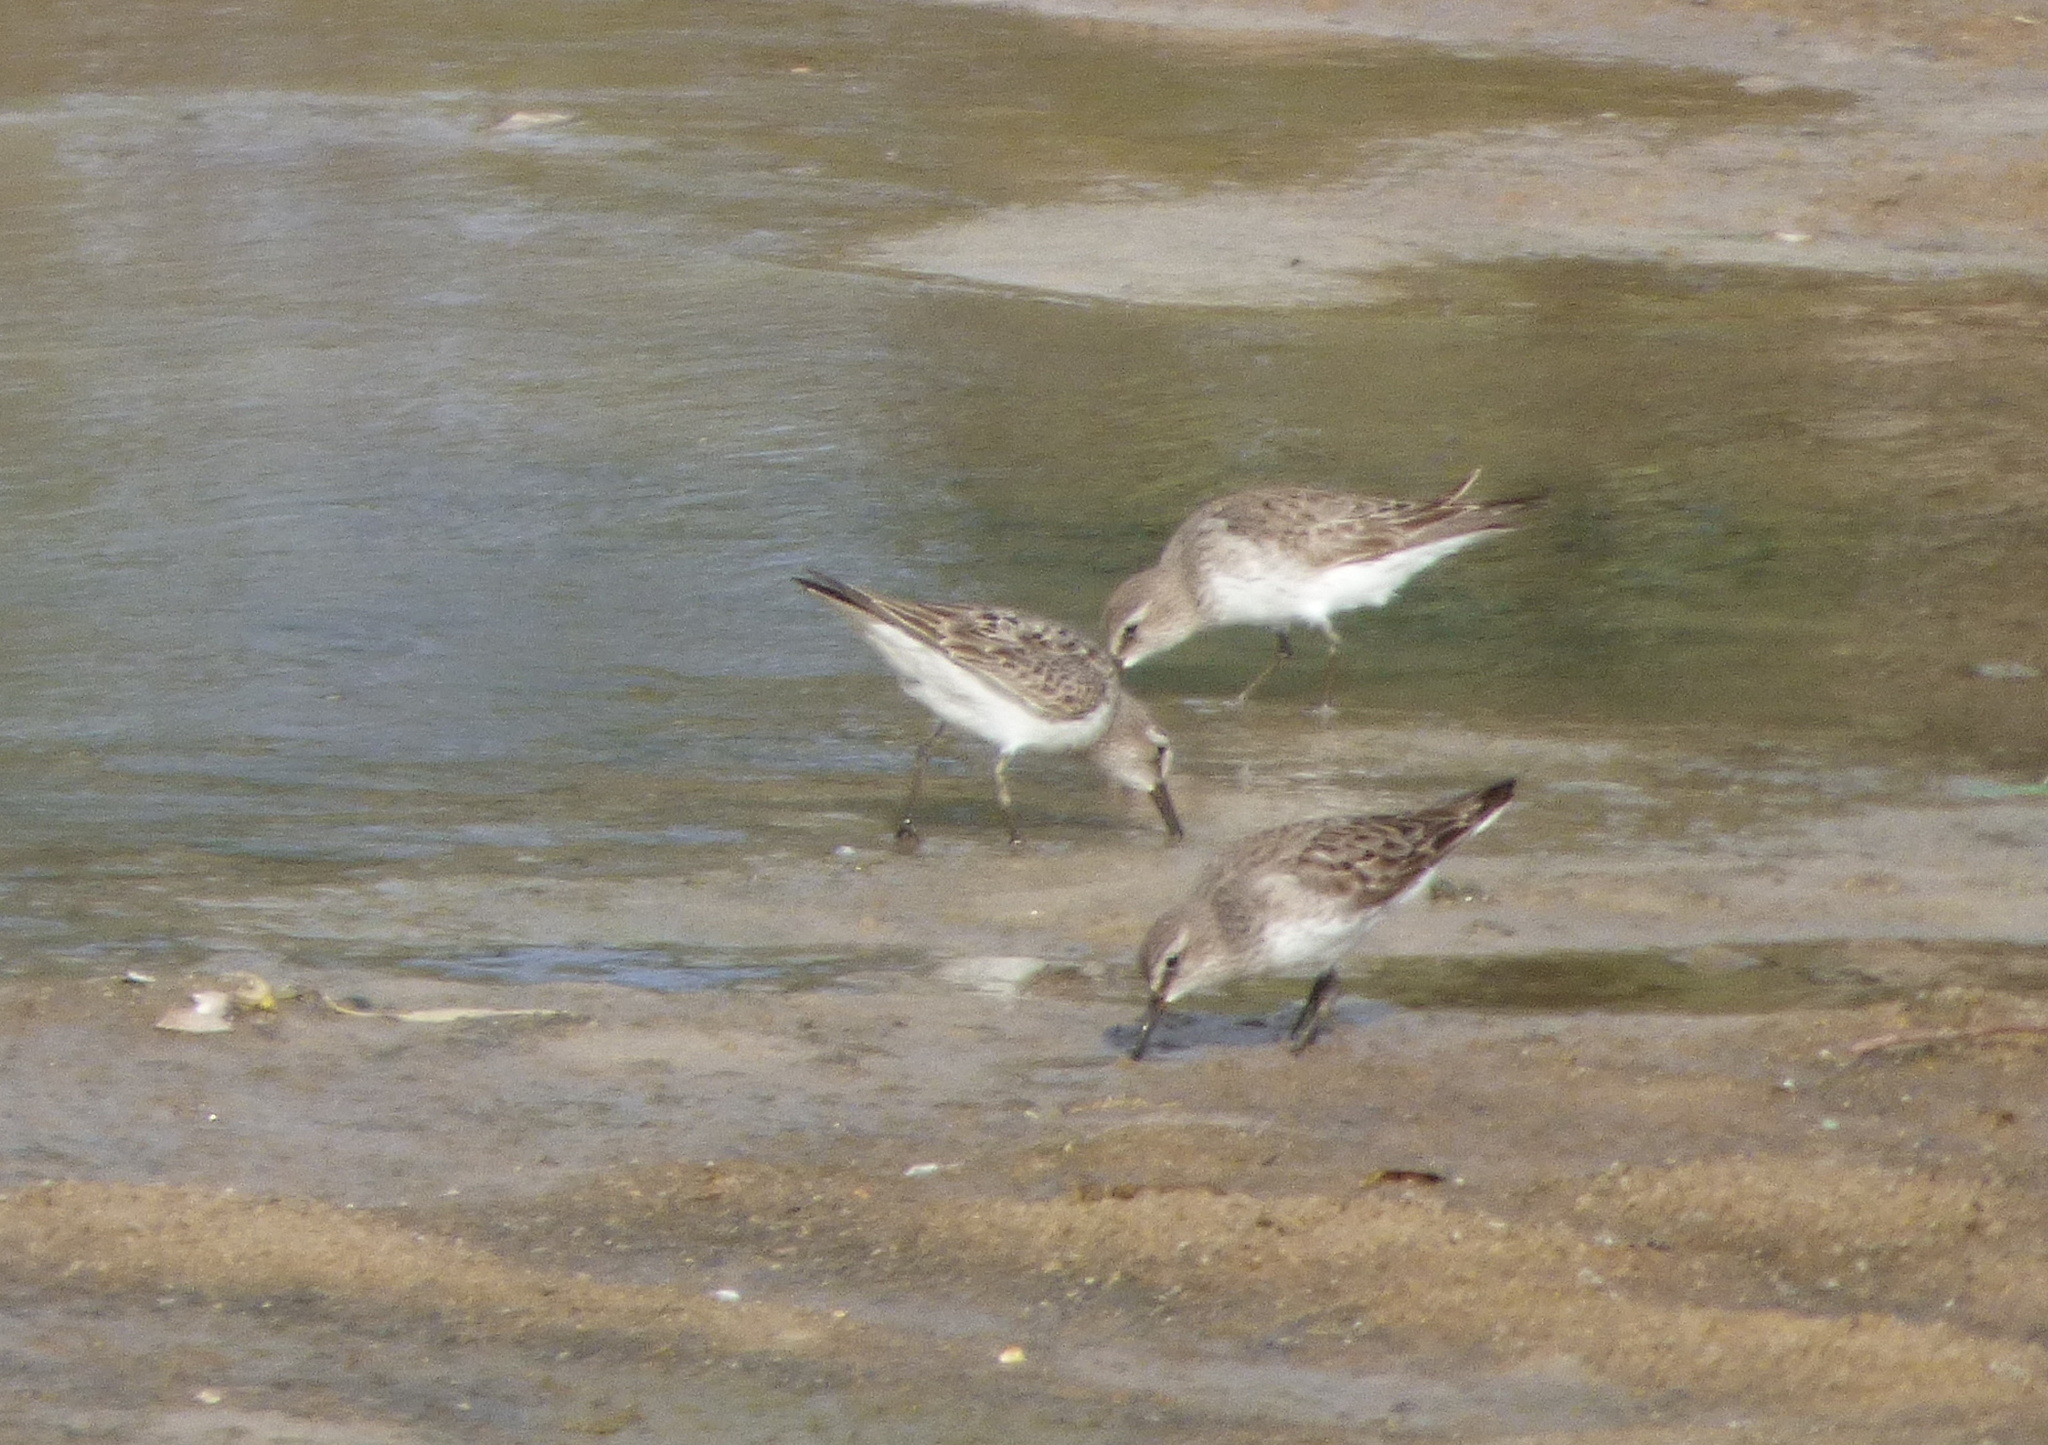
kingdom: Animalia
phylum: Chordata
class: Aves
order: Charadriiformes
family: Scolopacidae
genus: Calidris
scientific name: Calidris fuscicollis
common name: White-rumped sandpiper
